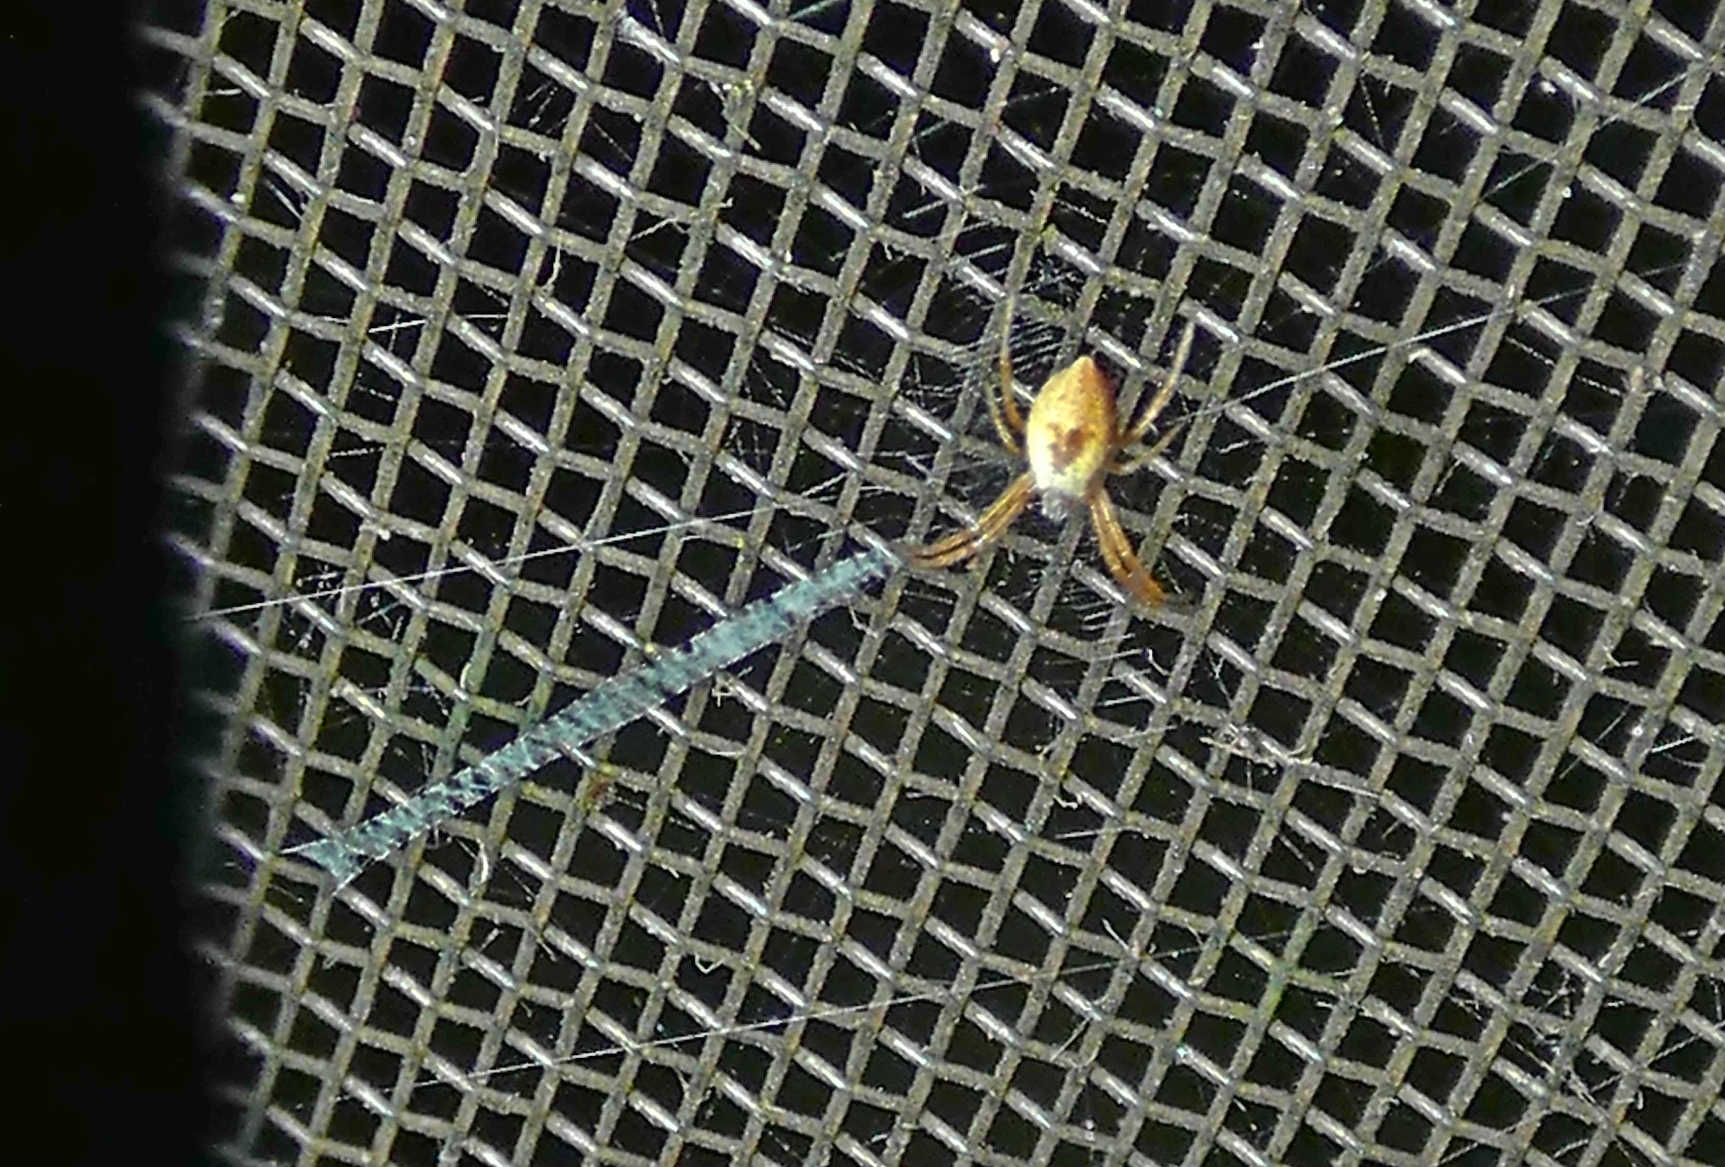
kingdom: Animalia
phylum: Arthropoda
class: Arachnida
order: Araneae
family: Araneidae
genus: Argiope
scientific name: Argiope argentata
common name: Orb weavers
